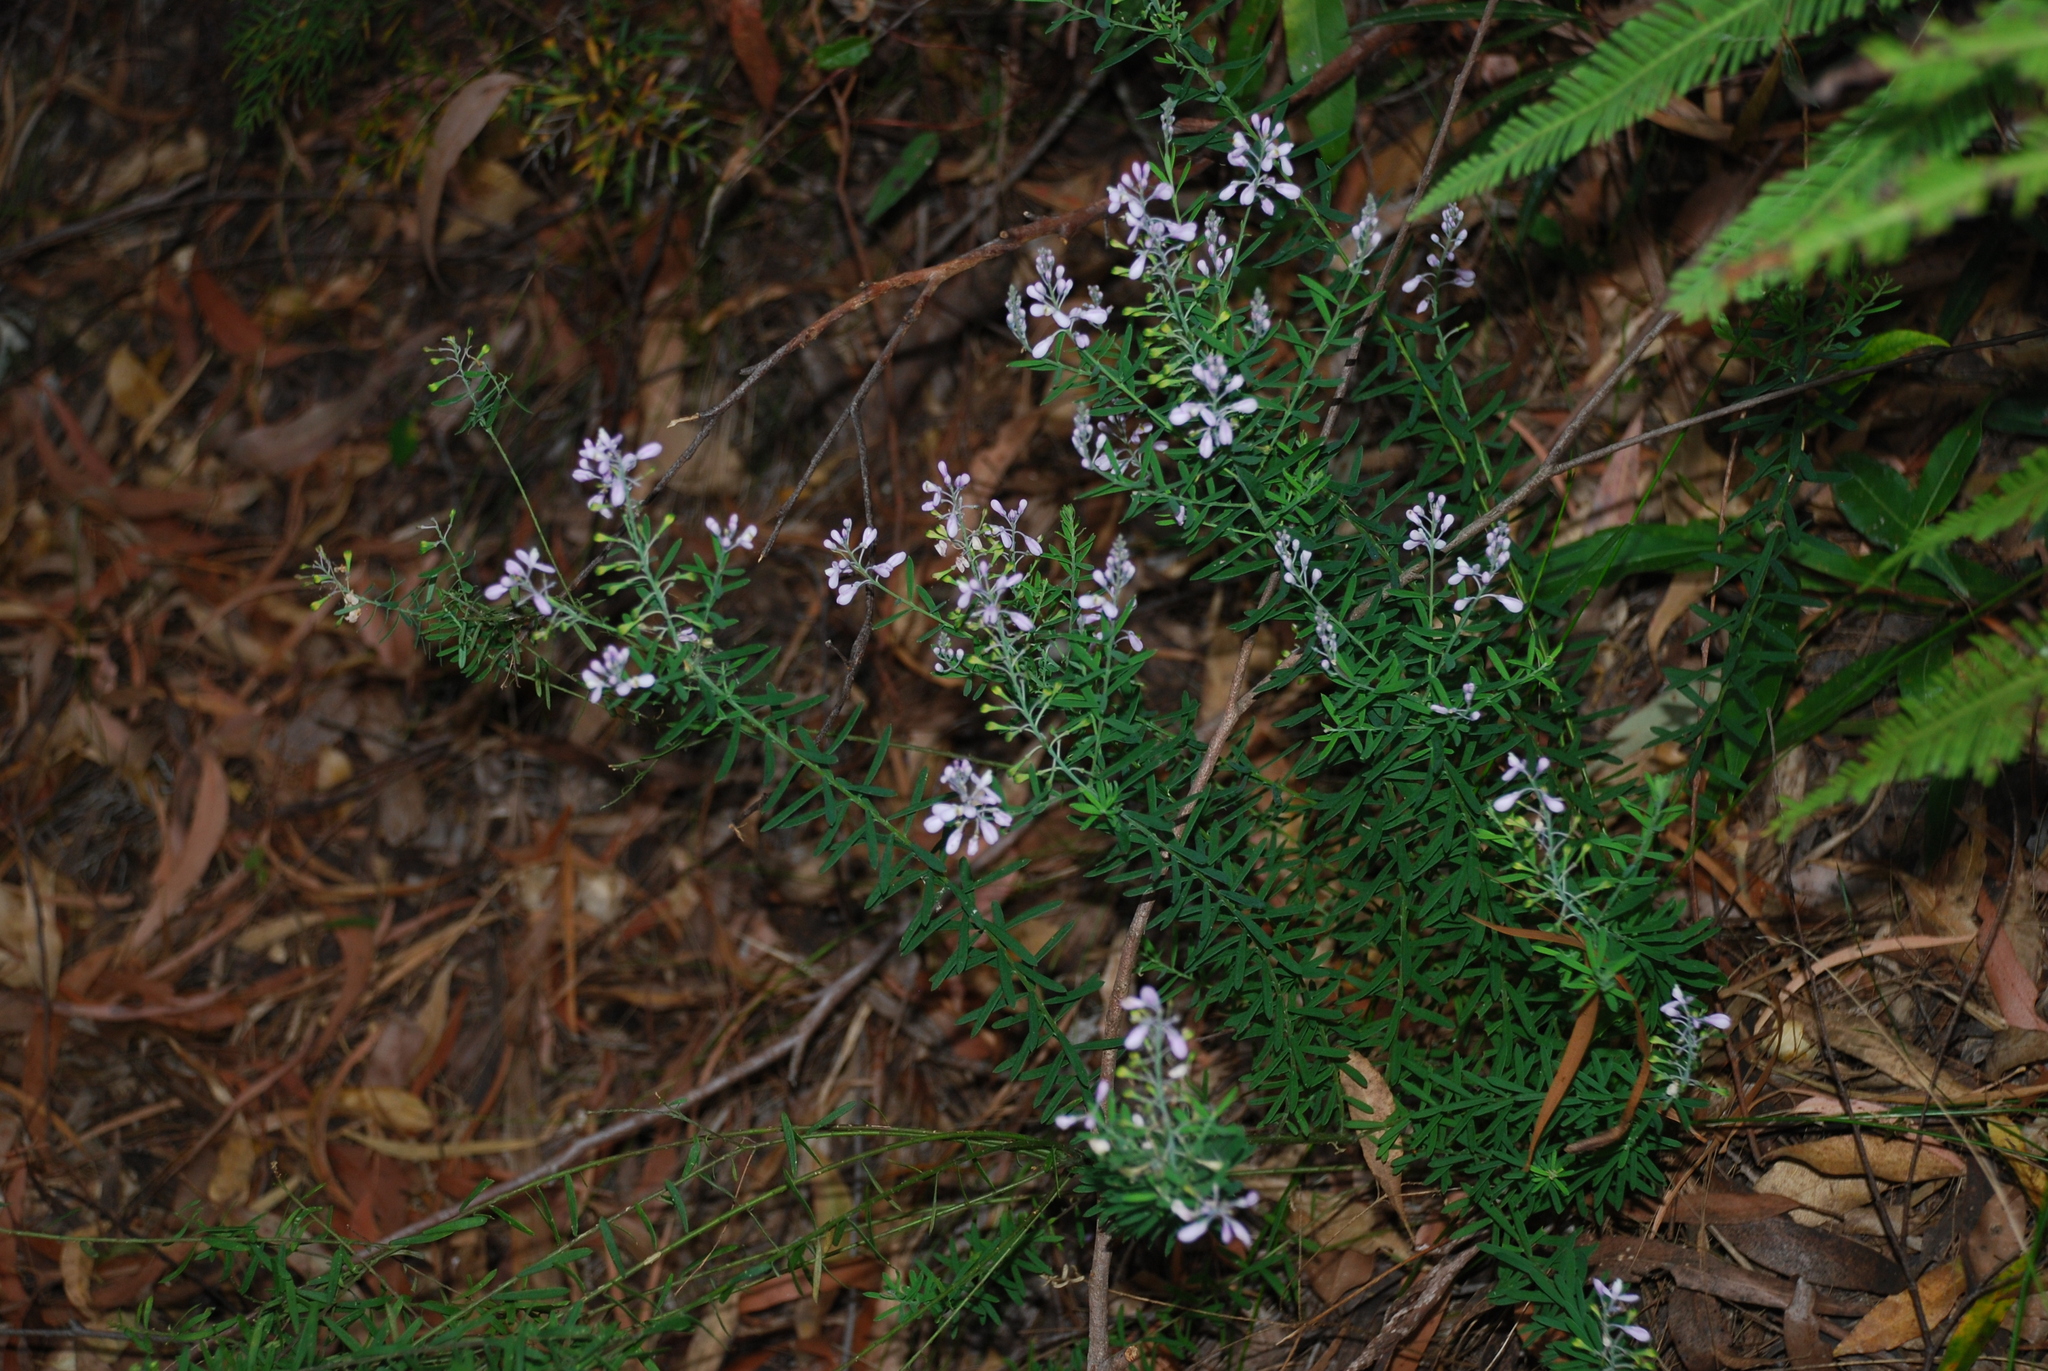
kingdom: Plantae
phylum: Tracheophyta
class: Magnoliopsida
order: Fabales
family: Polygalaceae
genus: Comesperma
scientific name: Comesperma esulifolium
